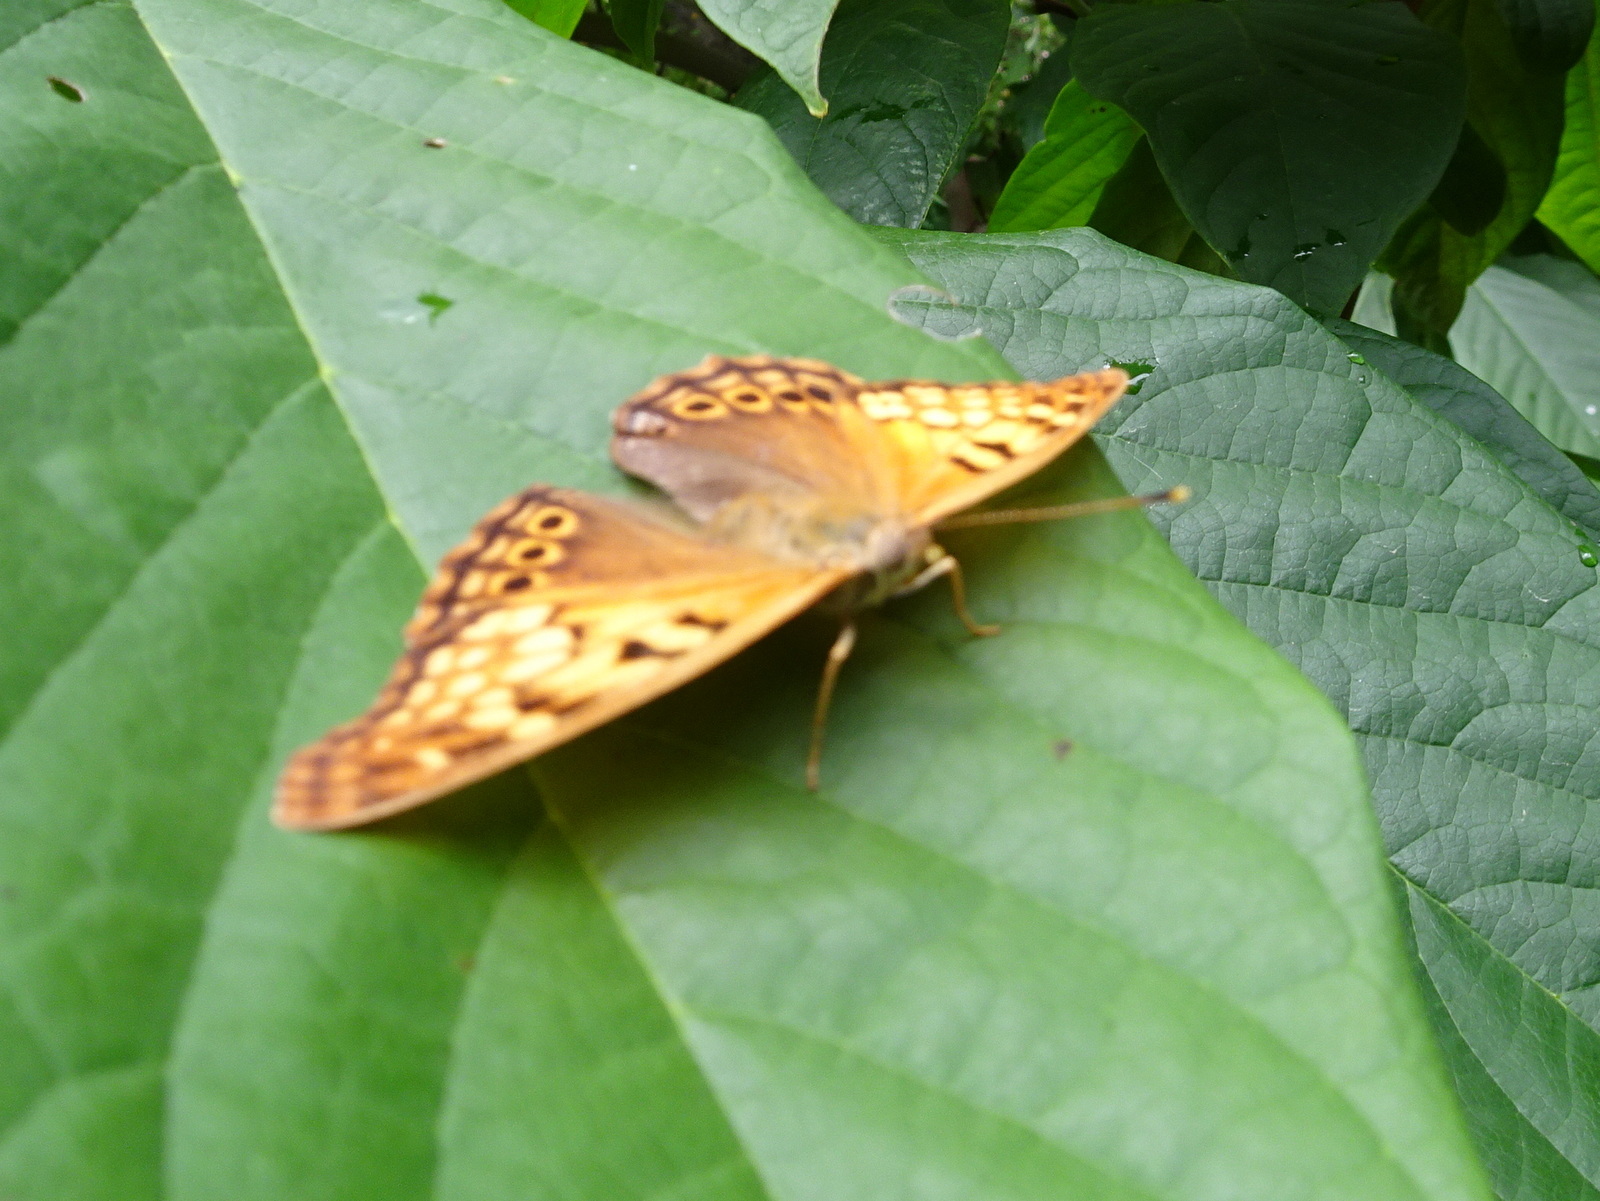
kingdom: Animalia
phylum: Arthropoda
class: Insecta
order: Lepidoptera
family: Nymphalidae
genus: Asterocampa
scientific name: Asterocampa clyton
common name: Tawny emperor
